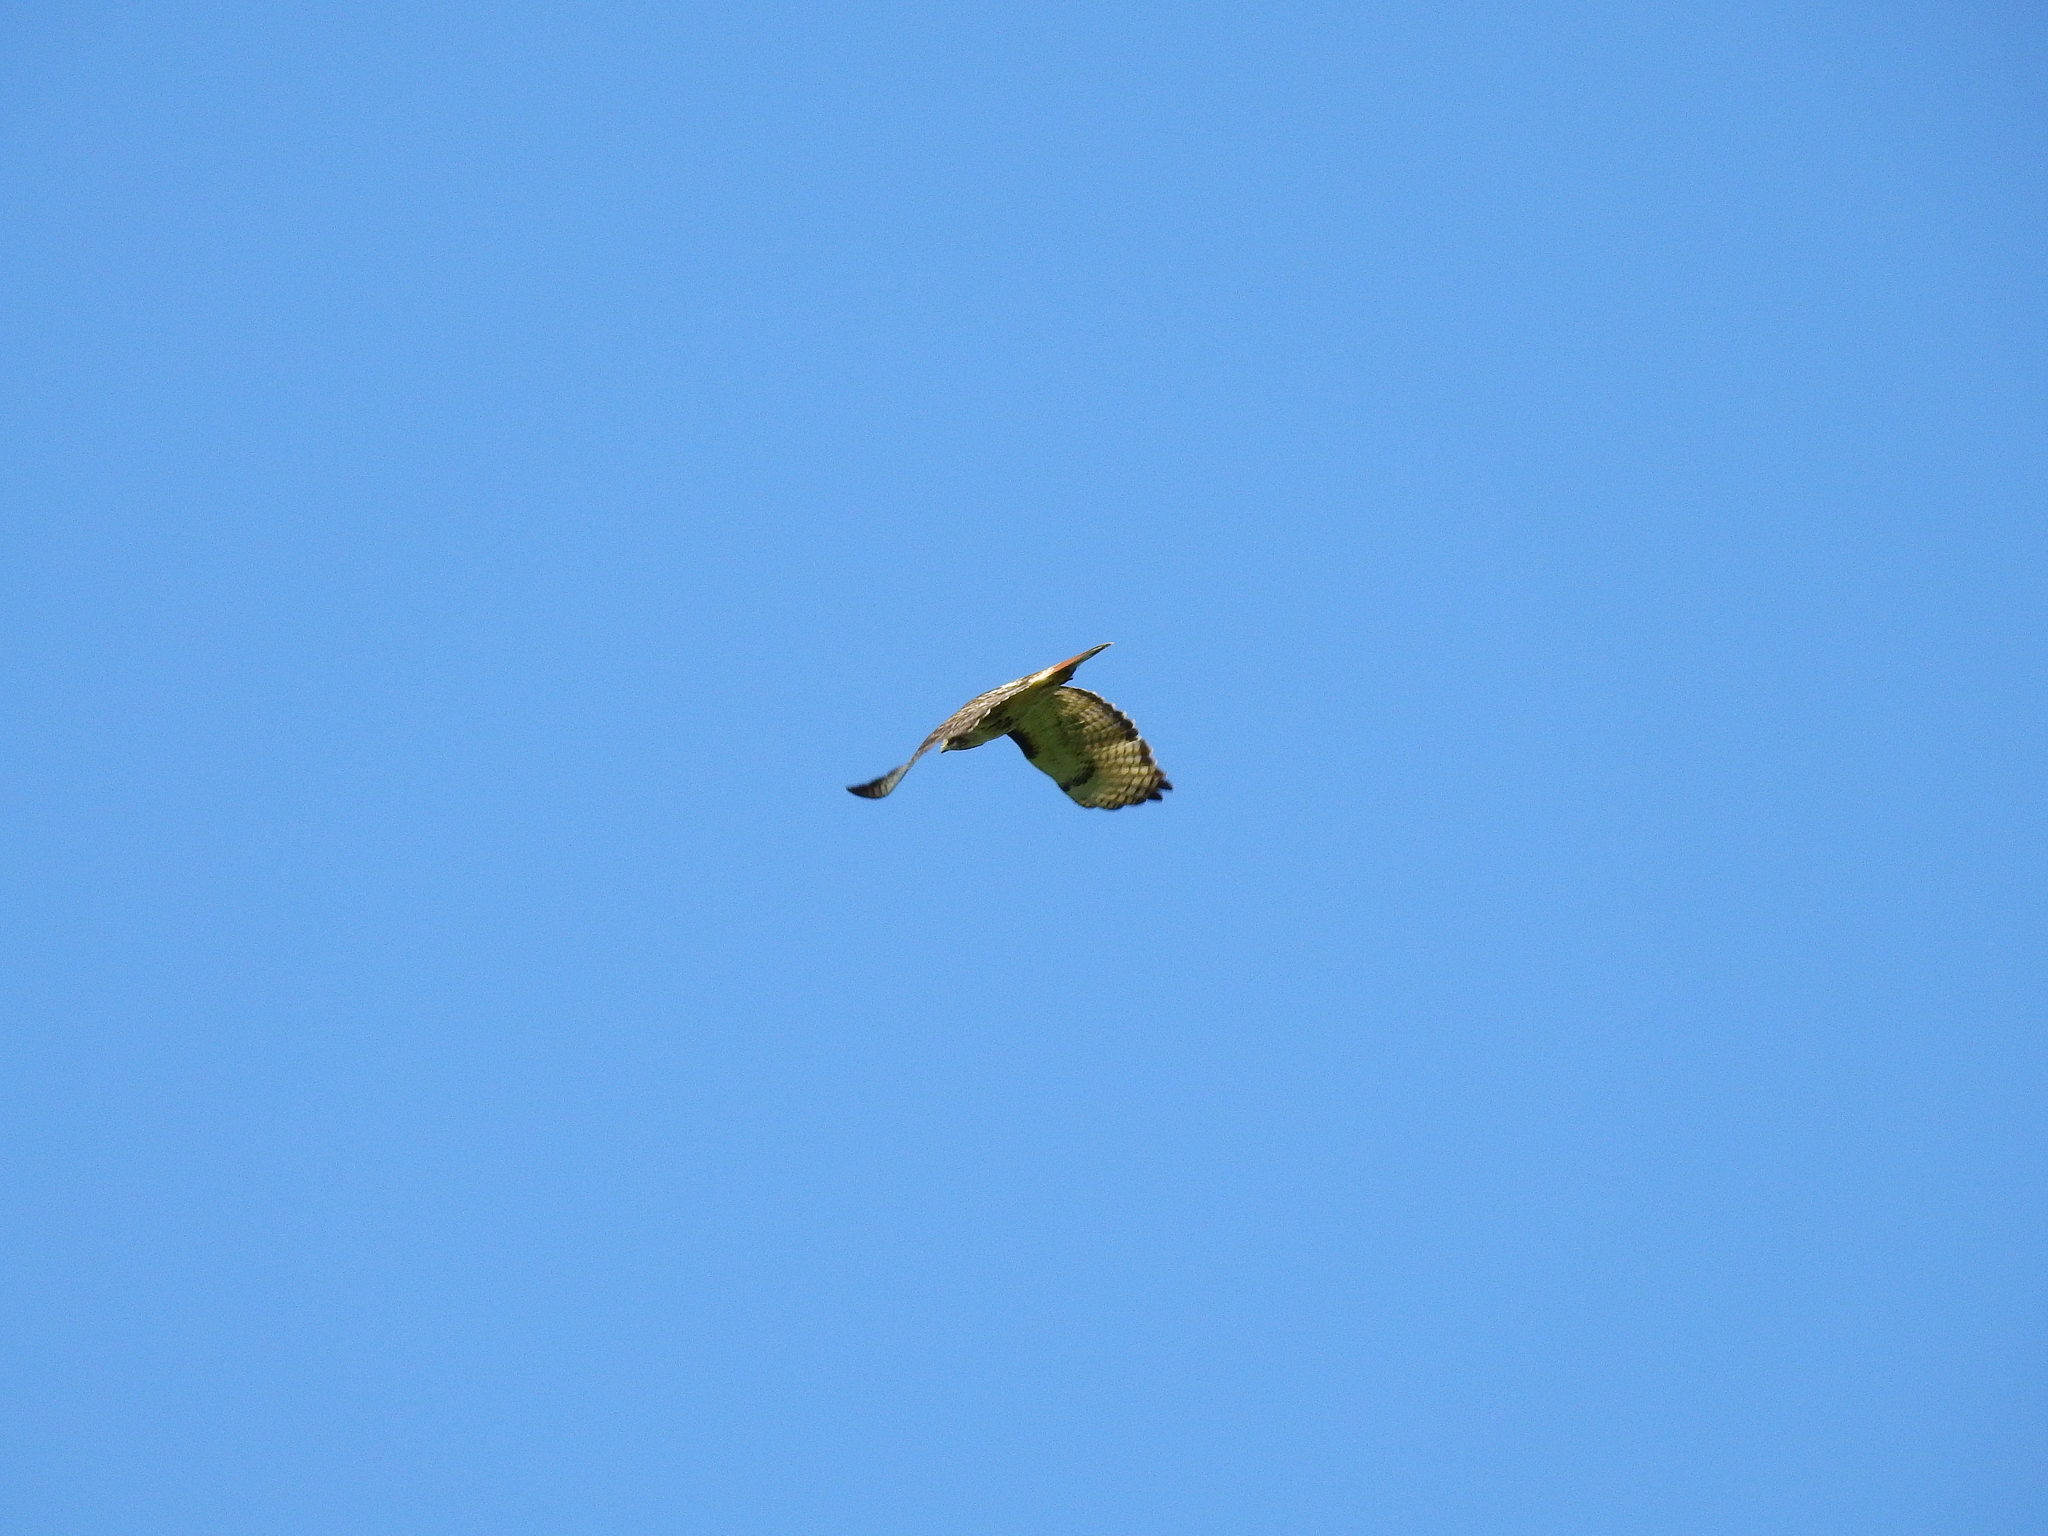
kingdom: Animalia
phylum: Chordata
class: Aves
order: Accipitriformes
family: Accipitridae
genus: Buteo
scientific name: Buteo jamaicensis
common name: Red-tailed hawk
